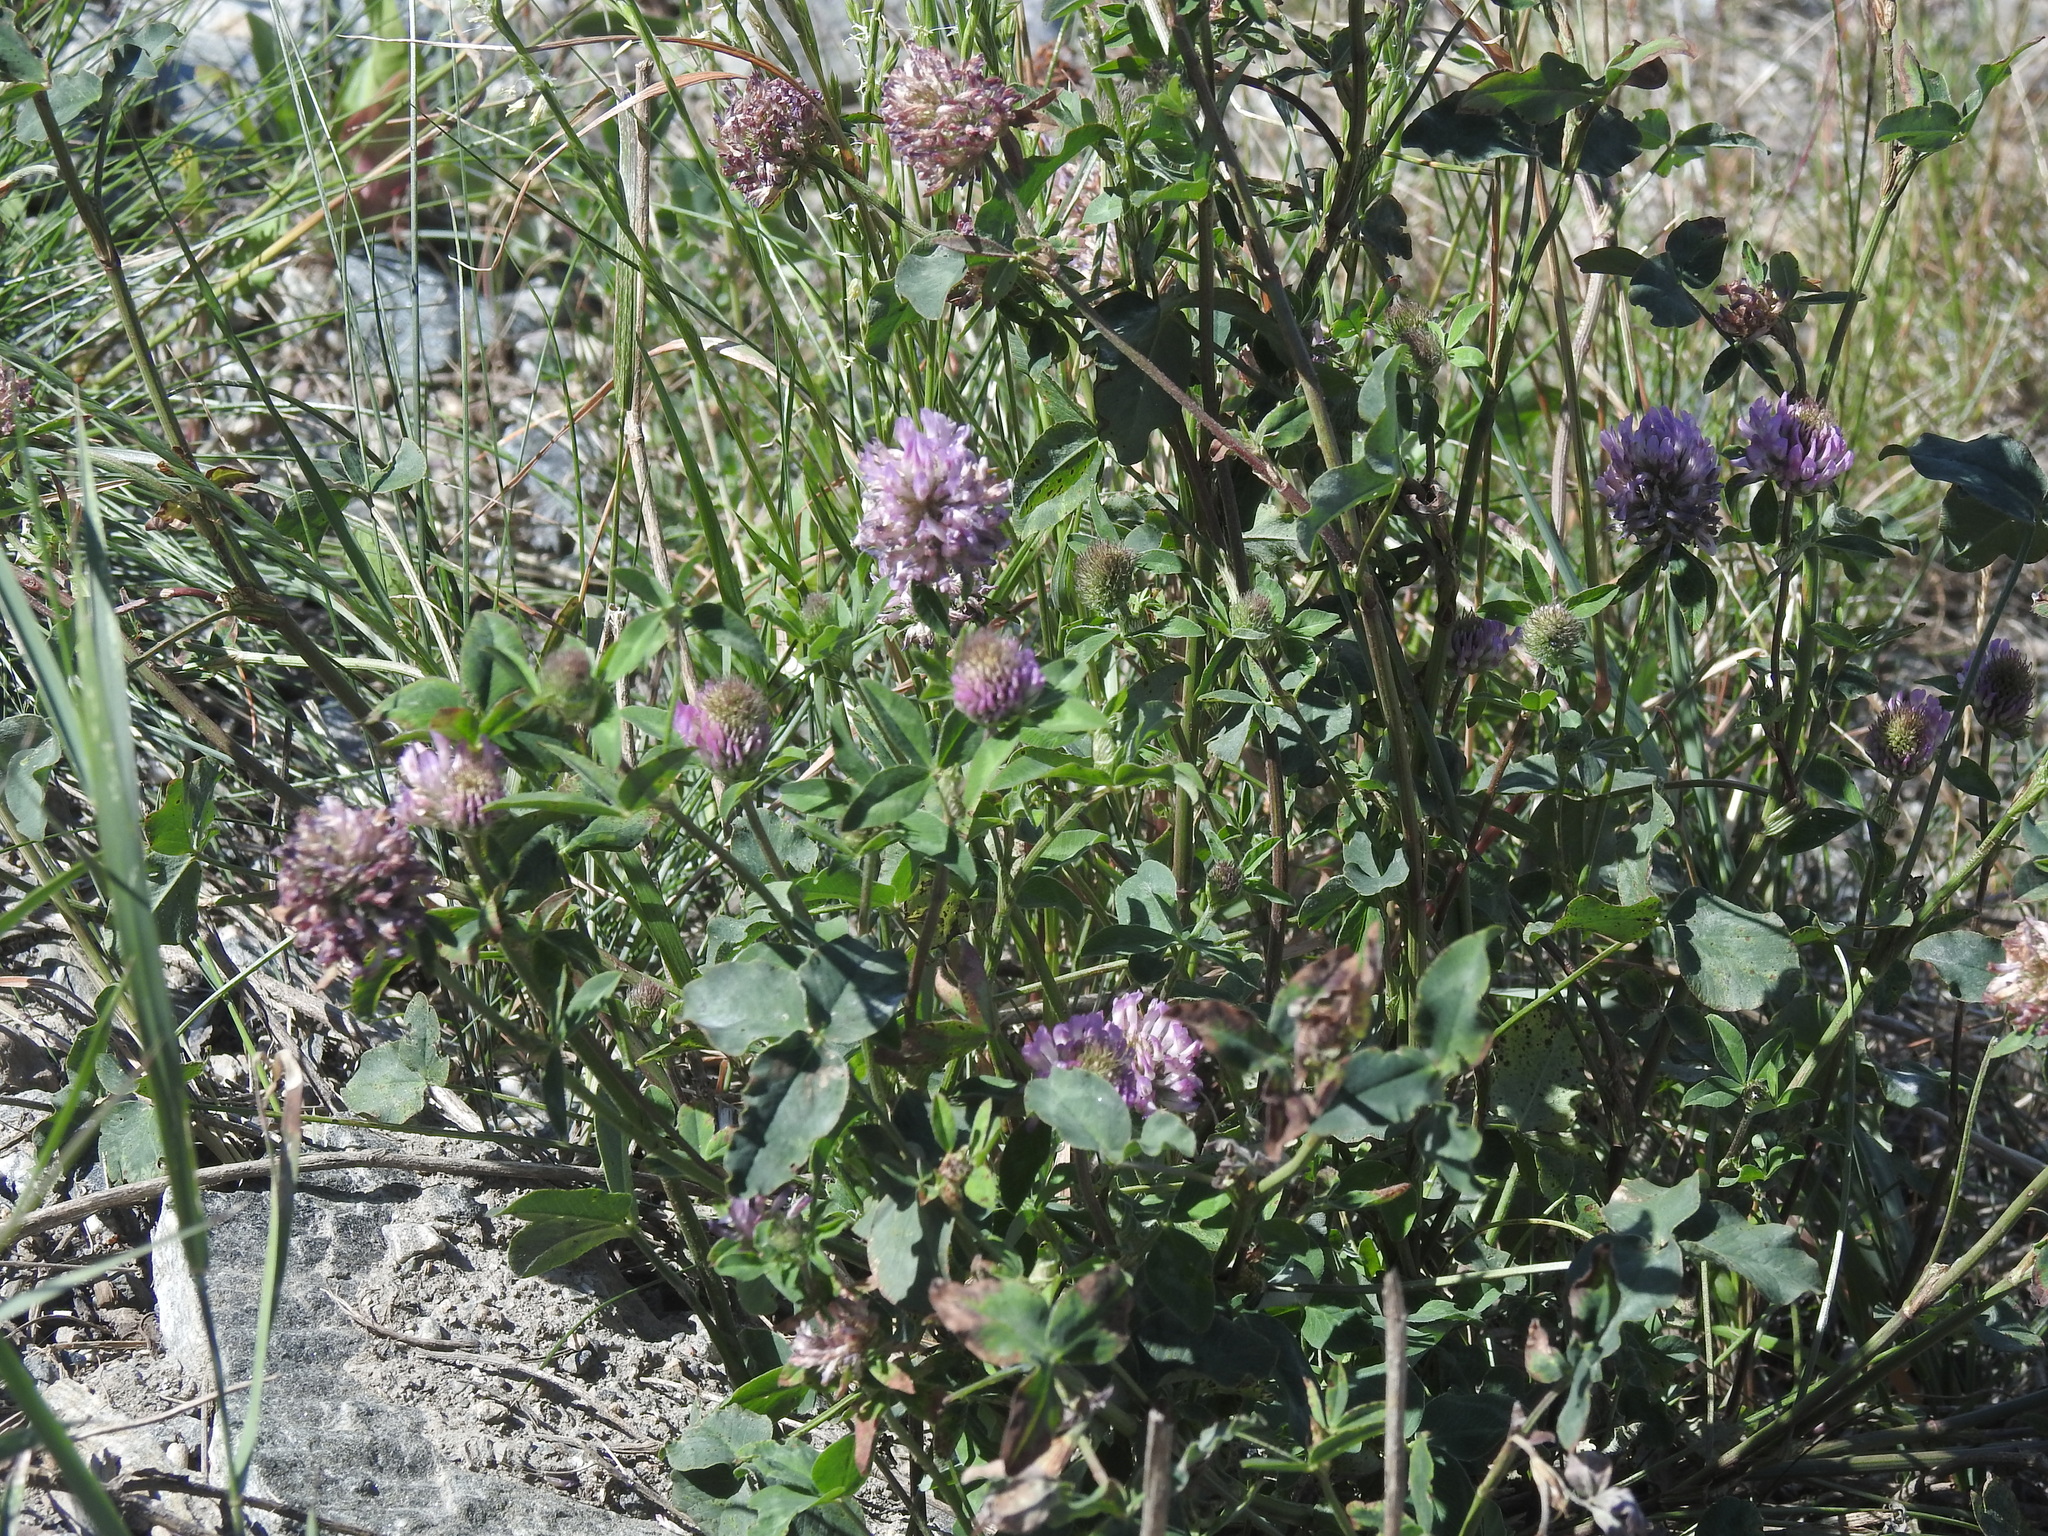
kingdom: Plantae
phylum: Tracheophyta
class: Magnoliopsida
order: Fabales
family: Fabaceae
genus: Trifolium
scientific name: Trifolium pratense
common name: Red clover
